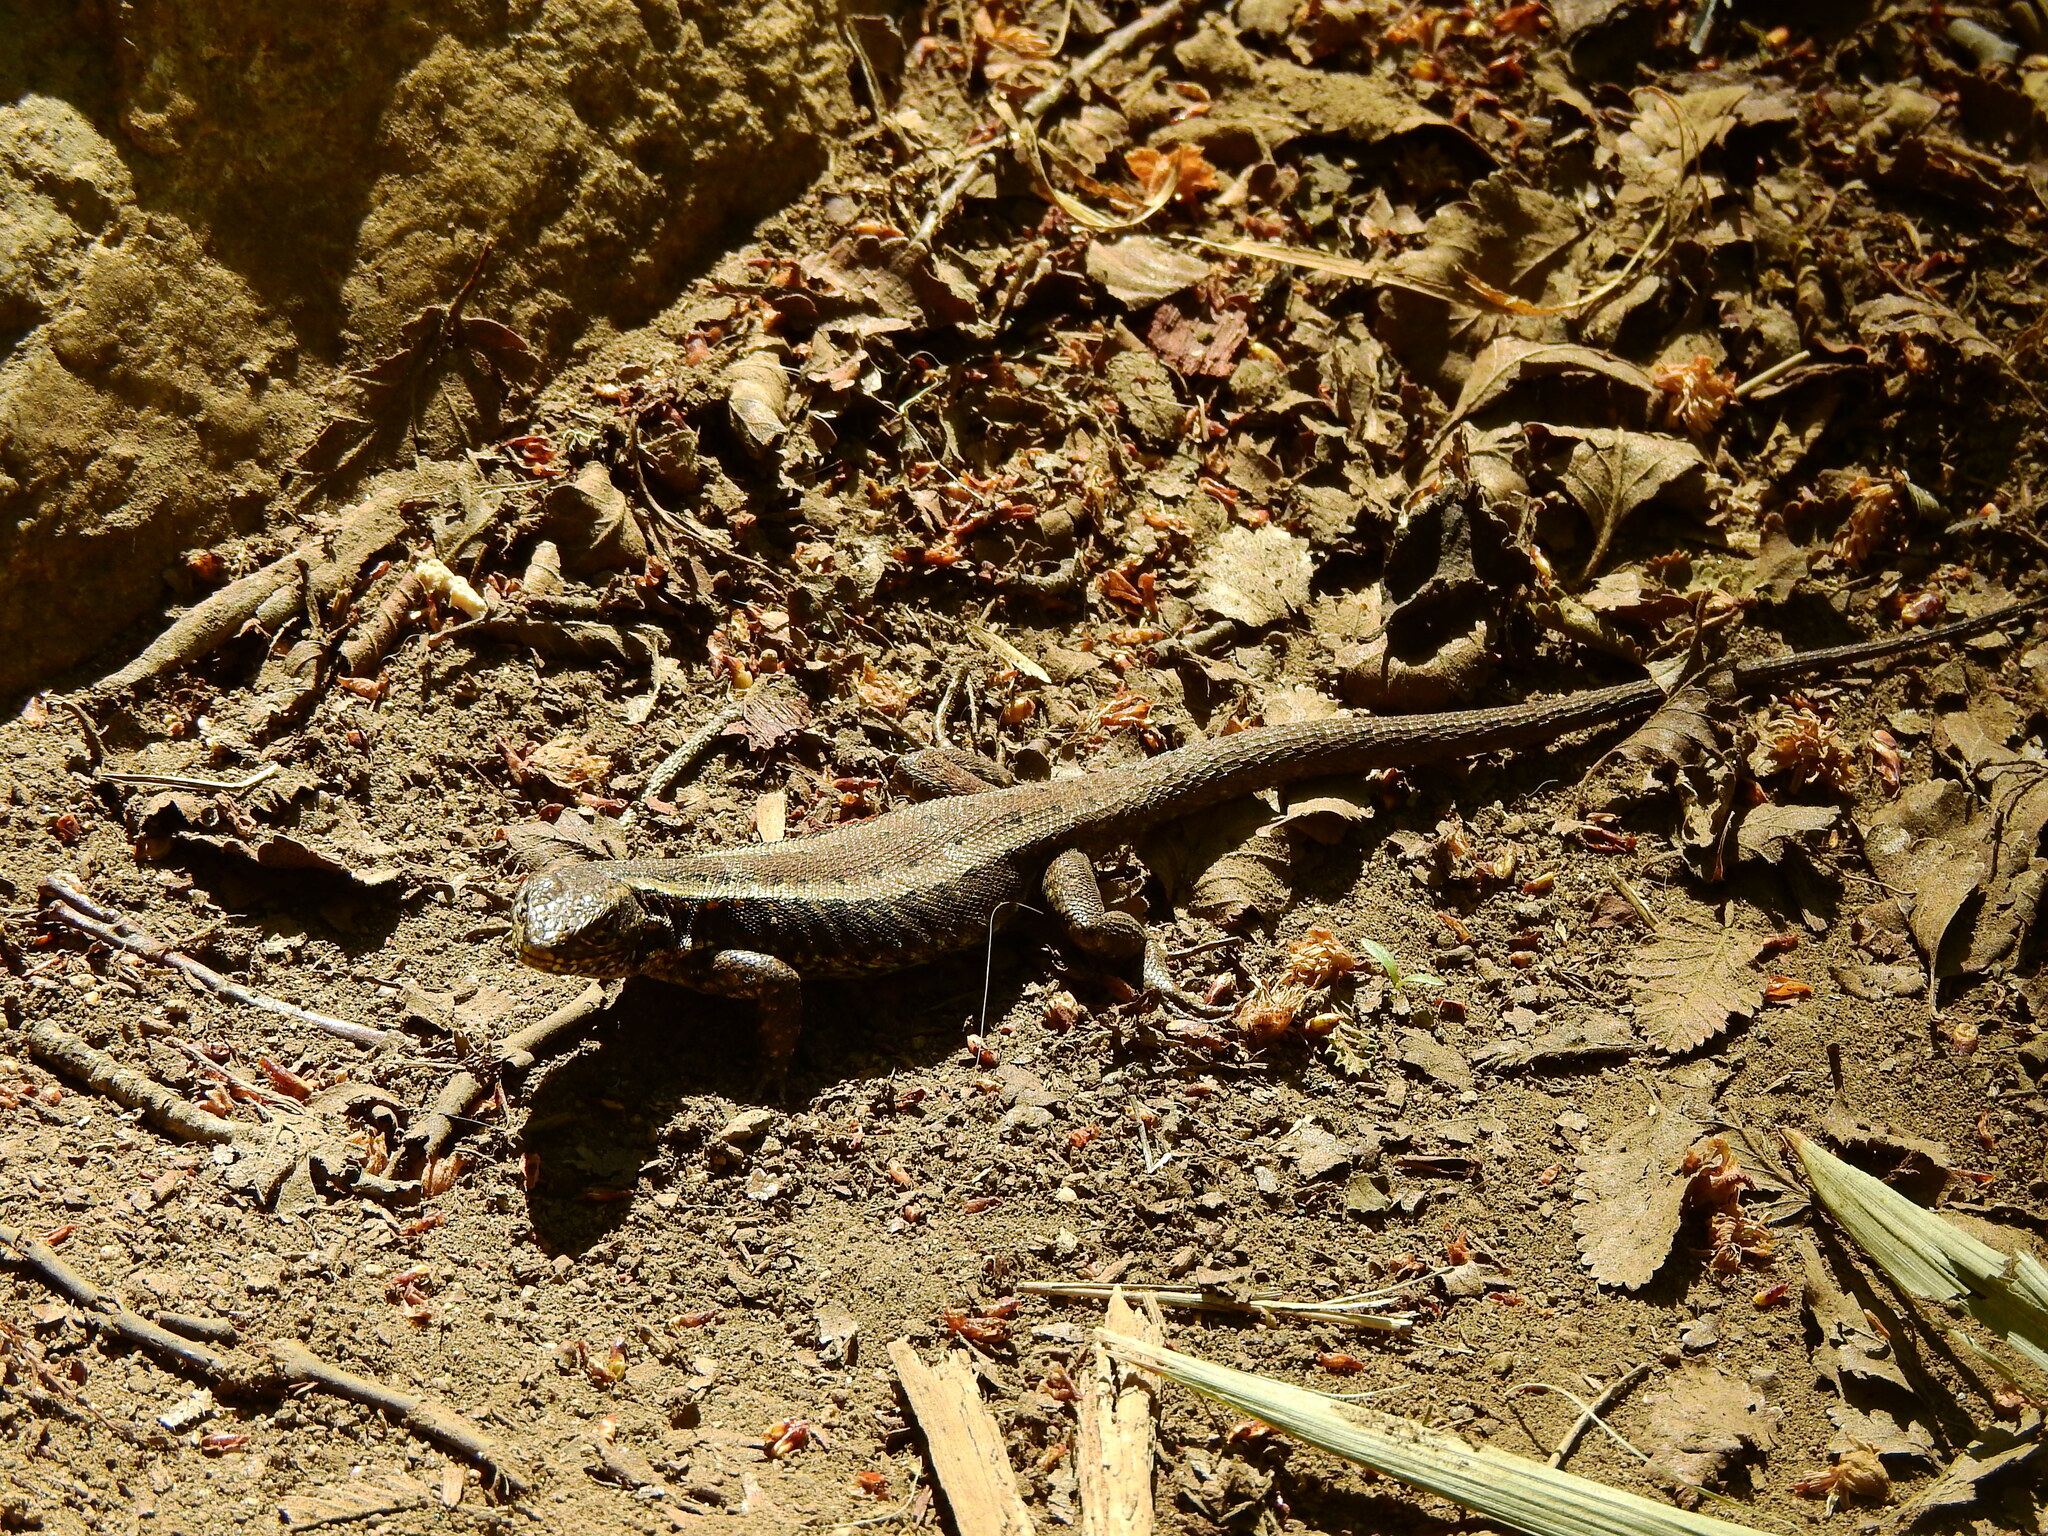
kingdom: Animalia
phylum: Chordata
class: Squamata
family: Liolaemidae
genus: Liolaemus
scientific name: Liolaemus pictus
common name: Painted tree iguana
